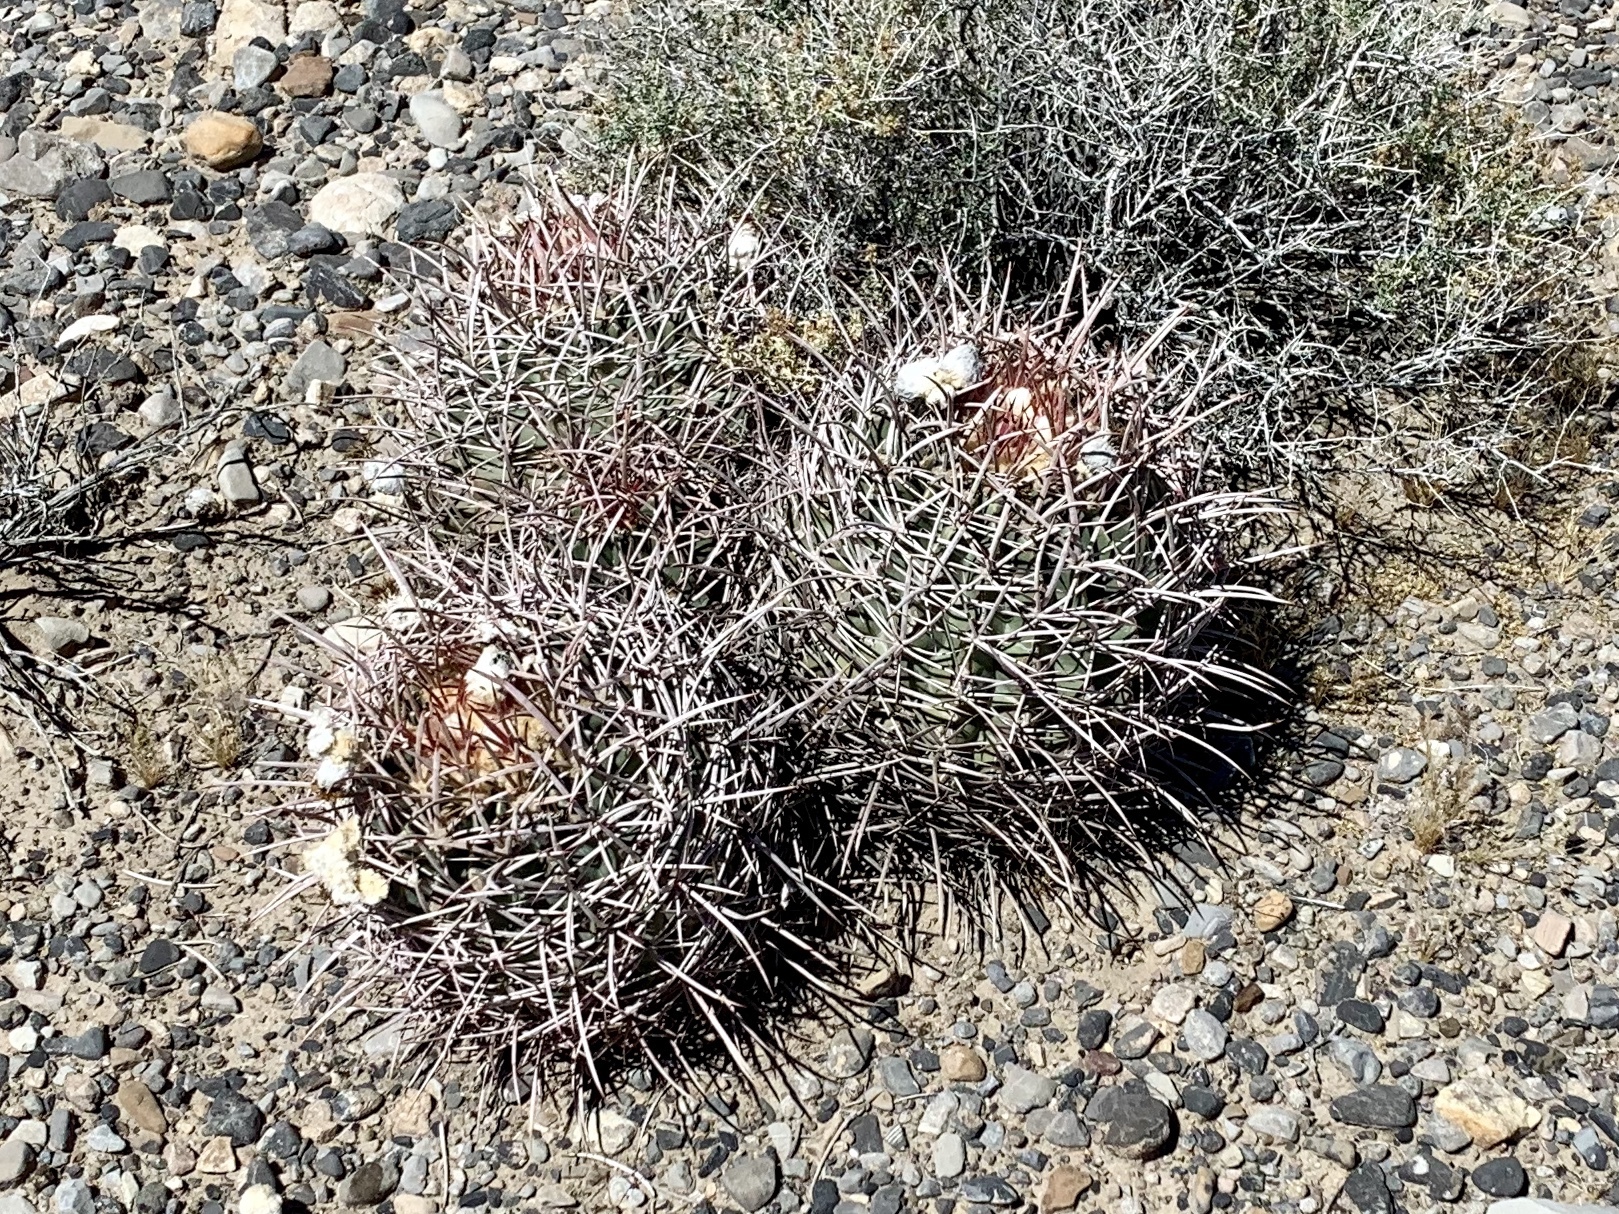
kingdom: Plantae
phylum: Tracheophyta
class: Magnoliopsida
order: Caryophyllales
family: Cactaceae
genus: Echinocactus
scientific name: Echinocactus polycephalus
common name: Cottontop cactus
